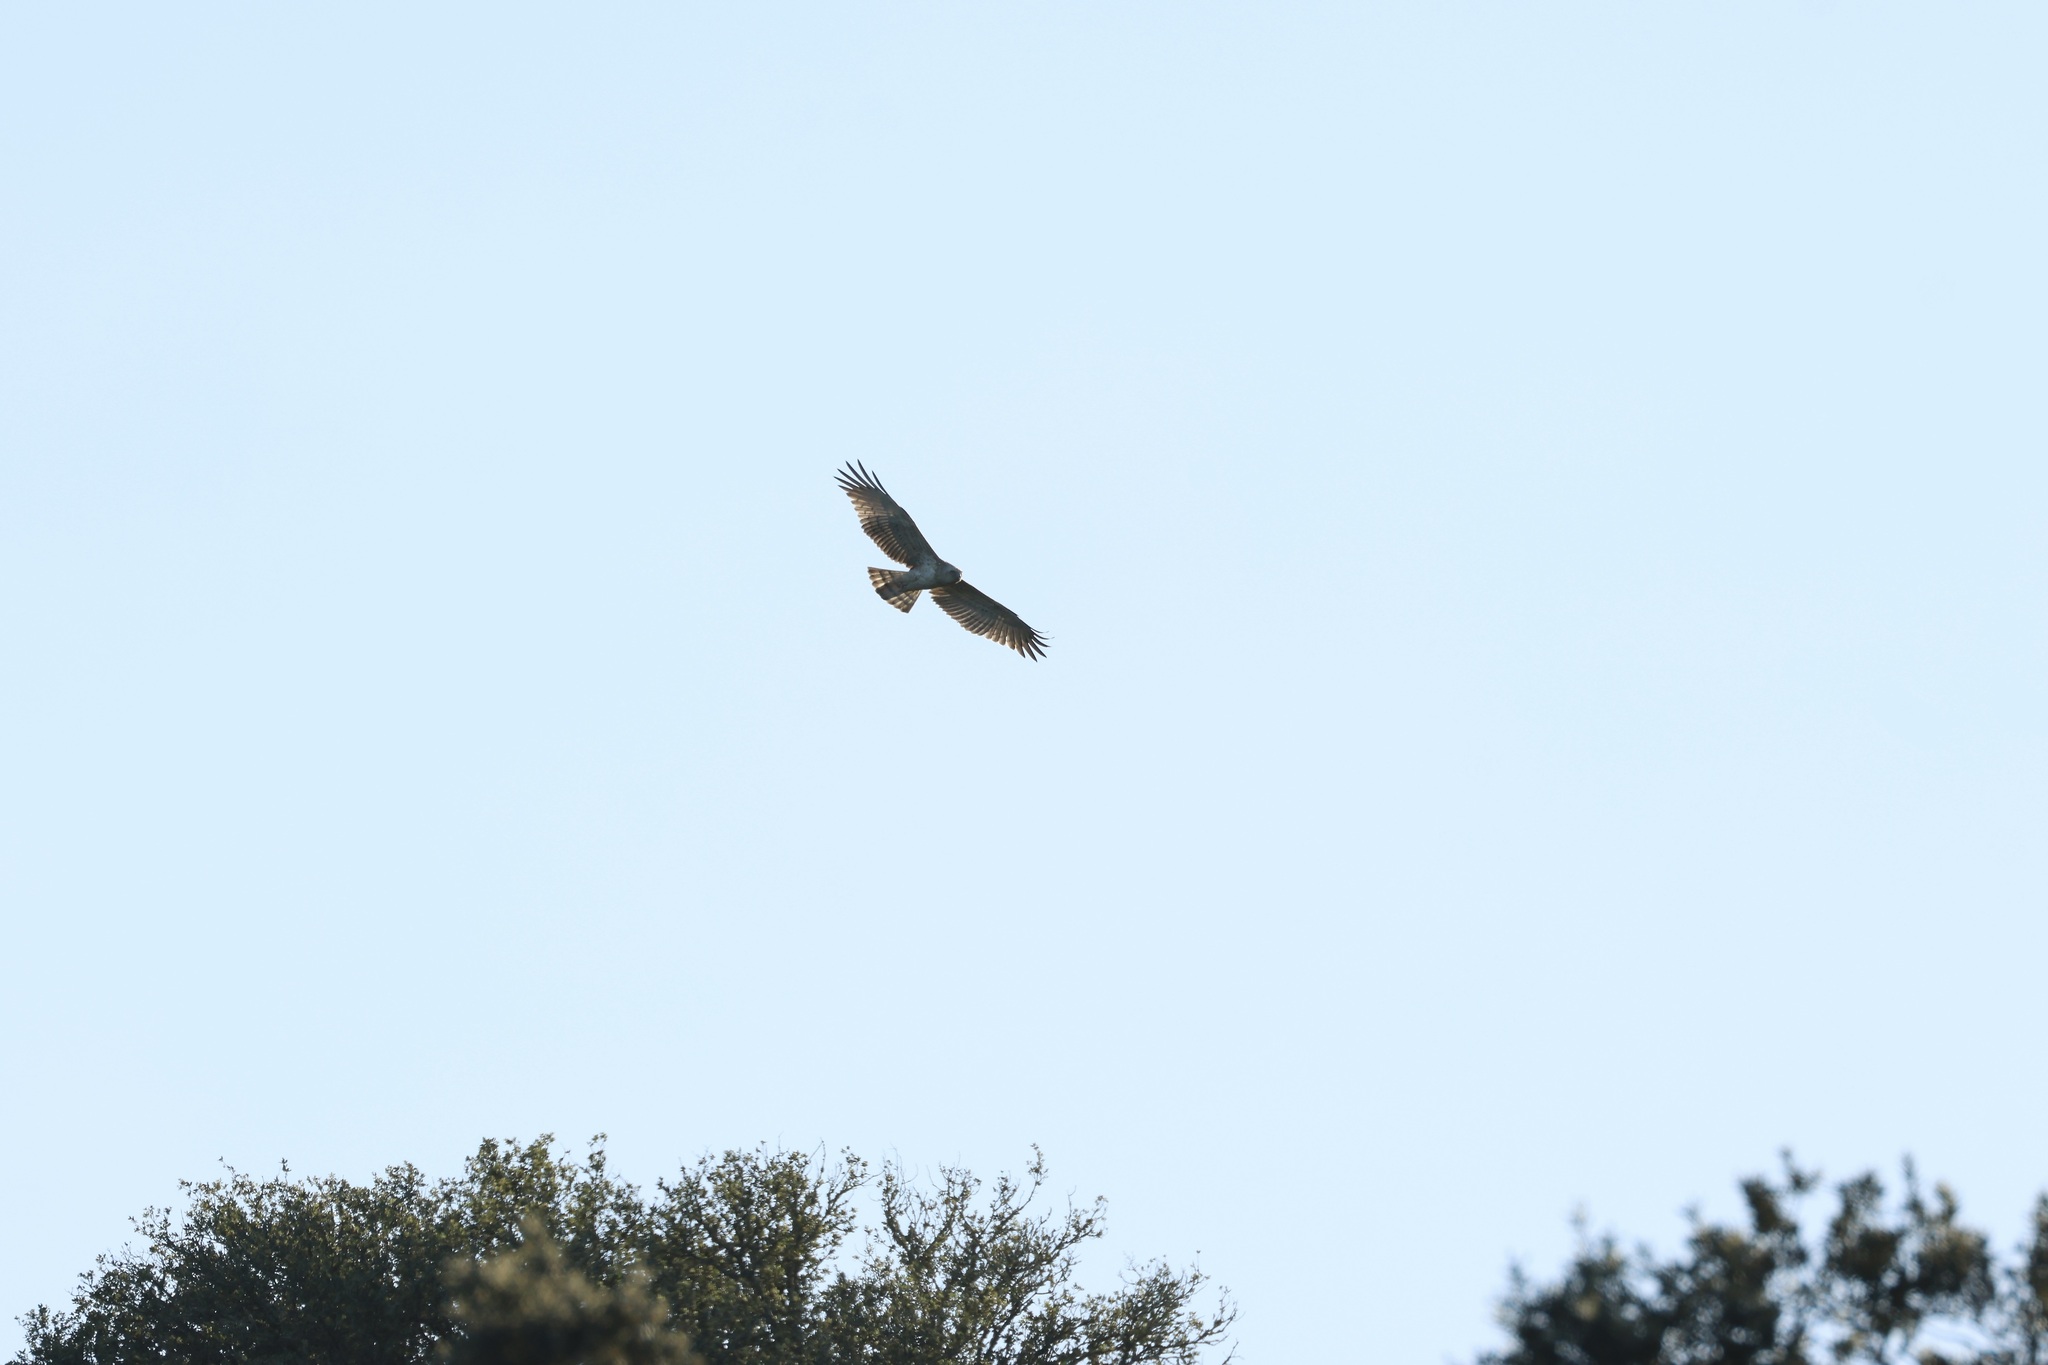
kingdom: Animalia
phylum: Chordata
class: Aves
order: Accipitriformes
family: Accipitridae
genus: Circaetus
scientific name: Circaetus gallicus
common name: Short-toed snake eagle
